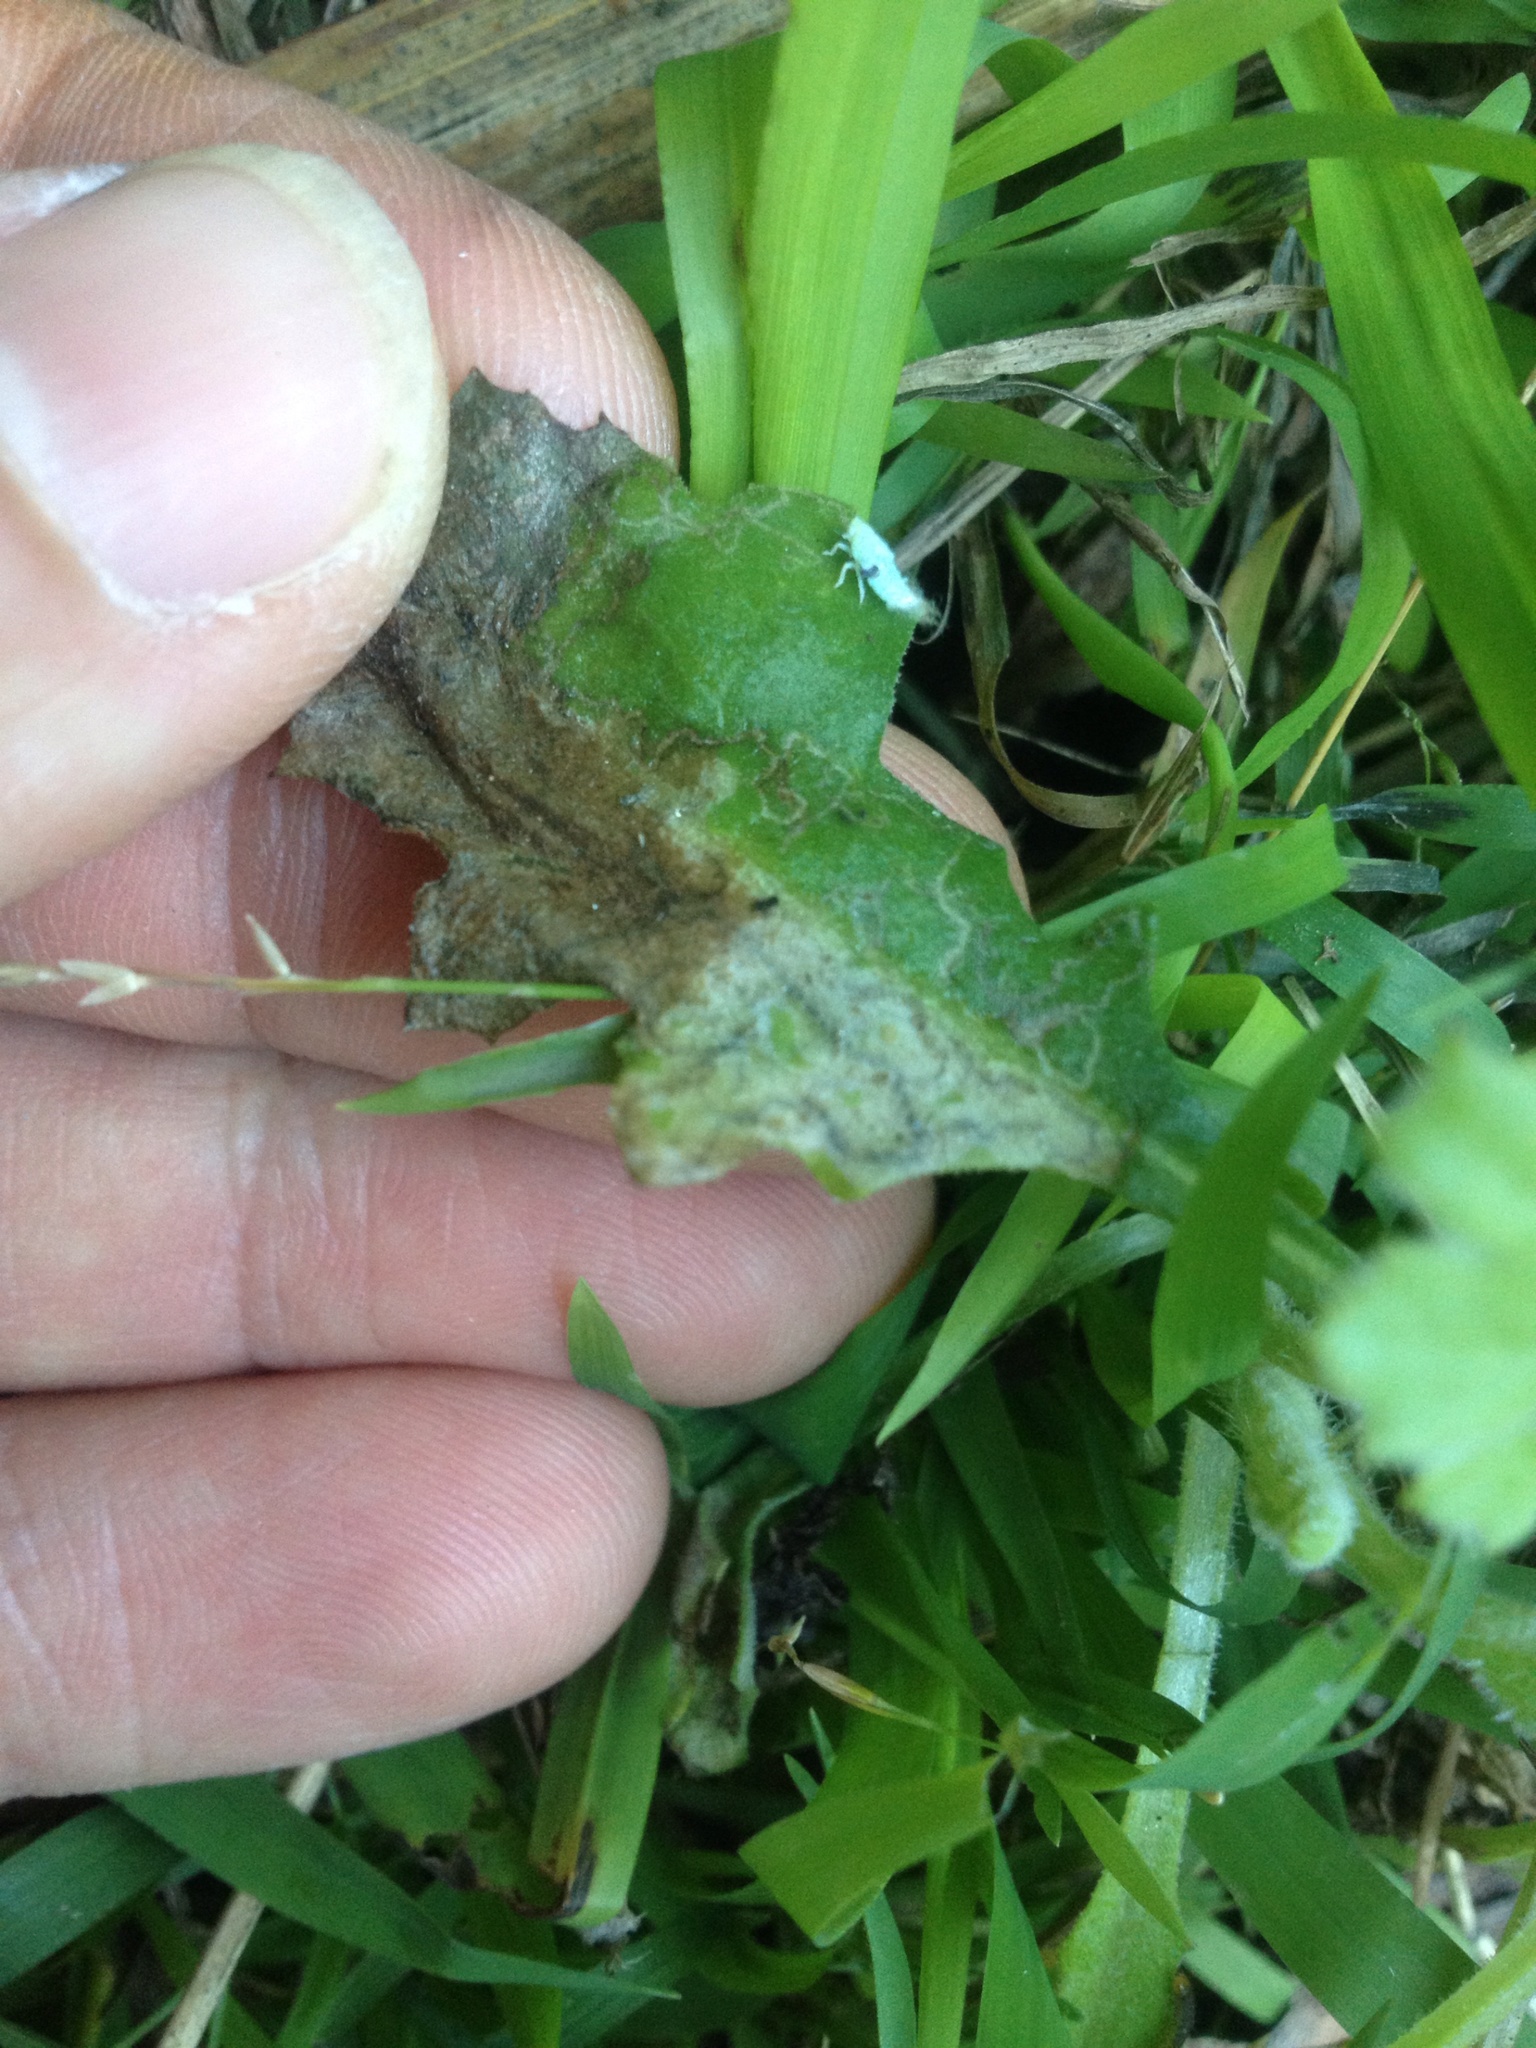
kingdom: Animalia
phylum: Arthropoda
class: Insecta
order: Lepidoptera
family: Nepticulidae
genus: Stigmella
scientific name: Stigmella ogygia
